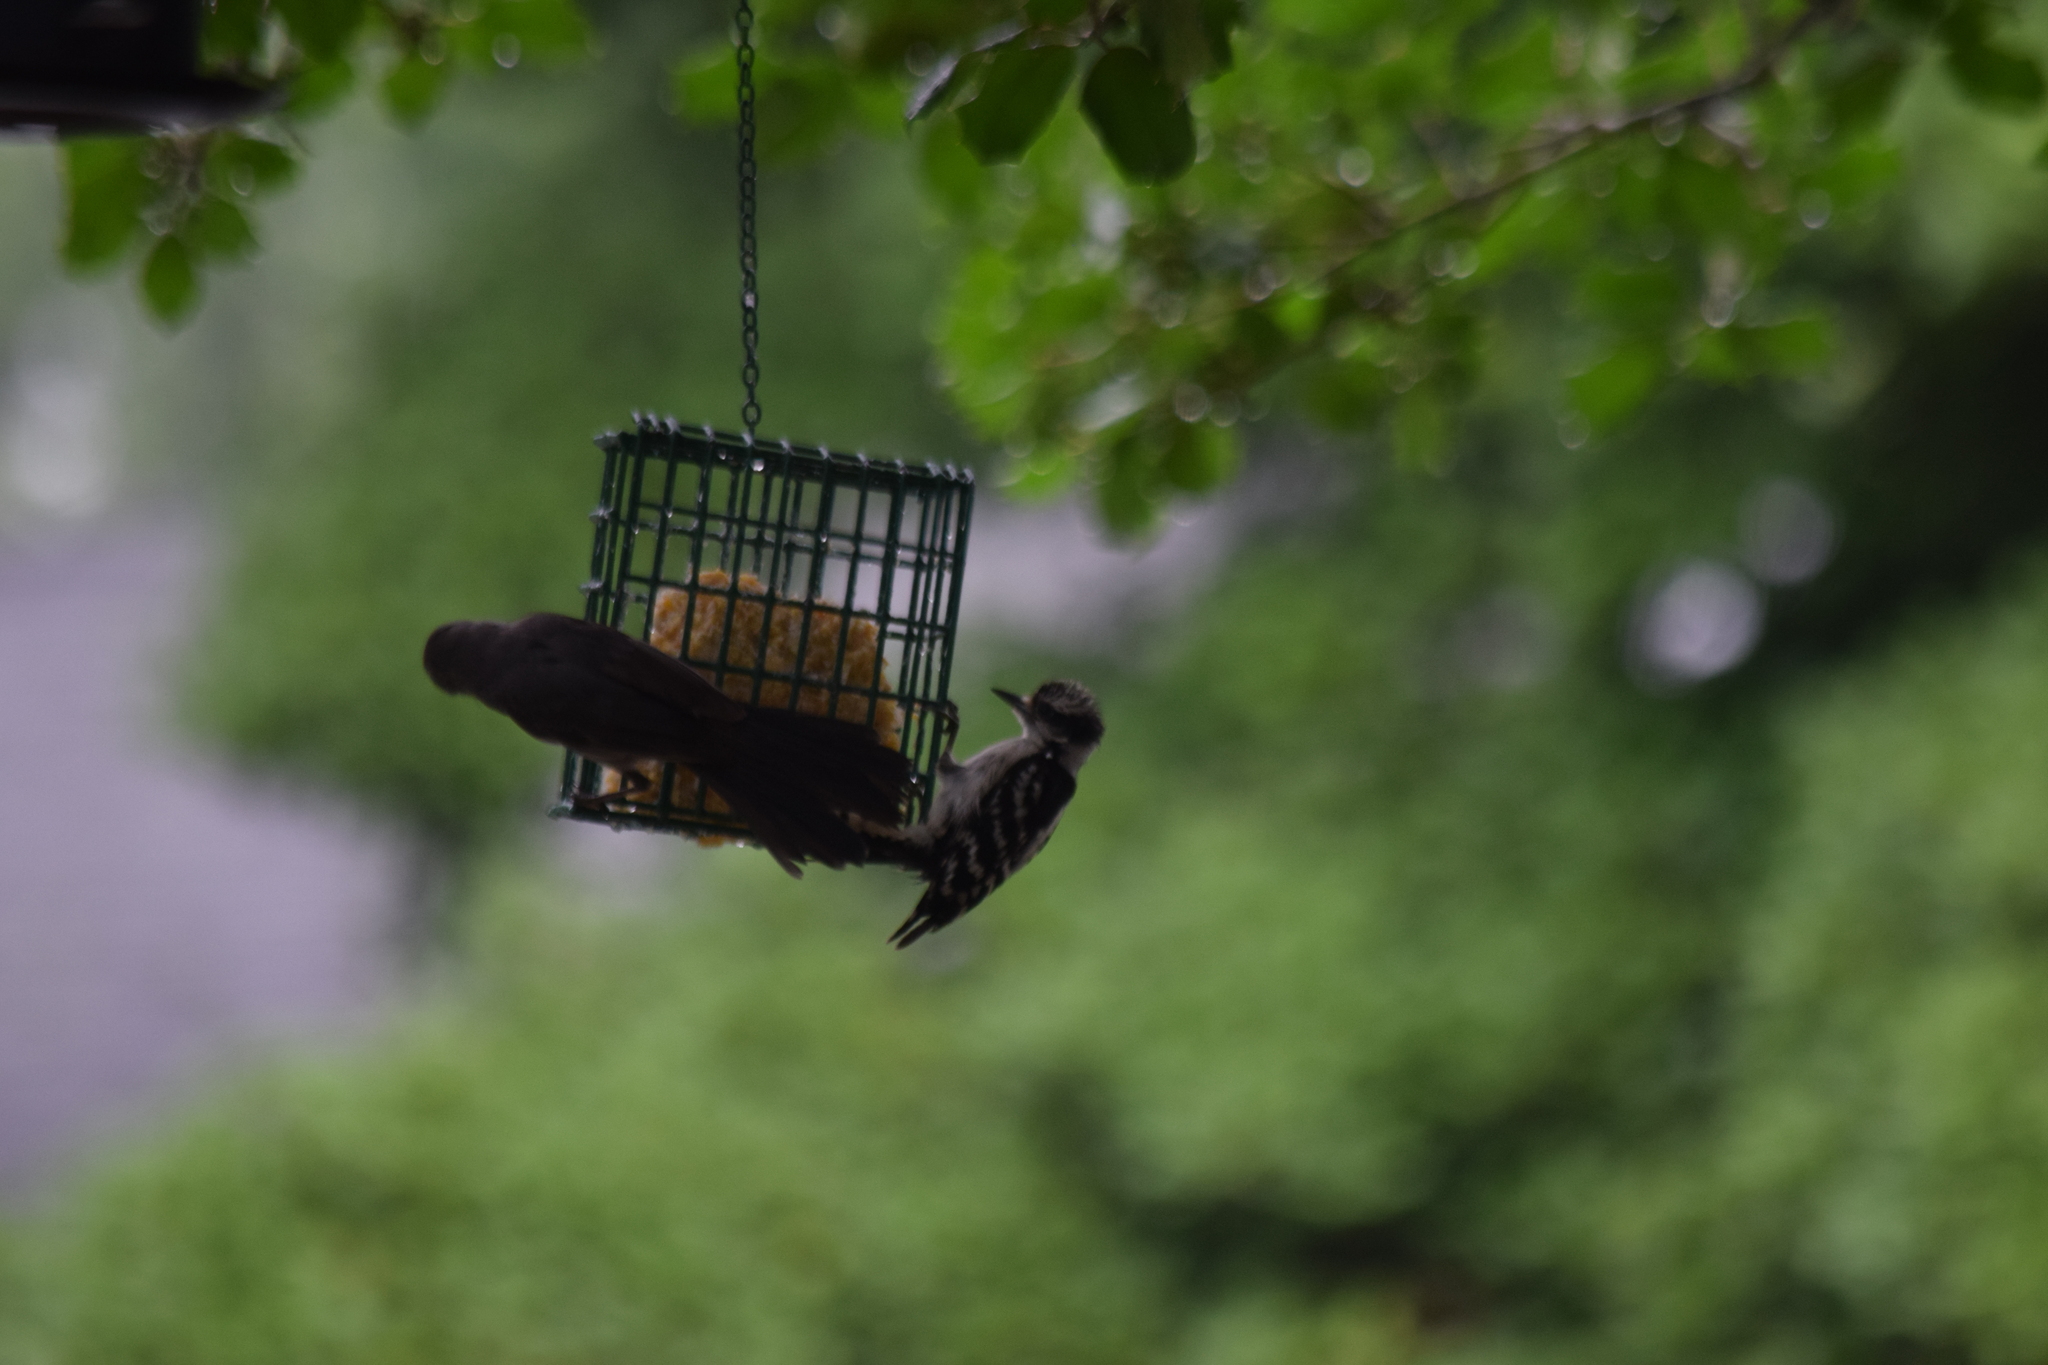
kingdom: Animalia
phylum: Chordata
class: Aves
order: Piciformes
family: Picidae
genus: Dryobates
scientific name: Dryobates pubescens
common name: Downy woodpecker
